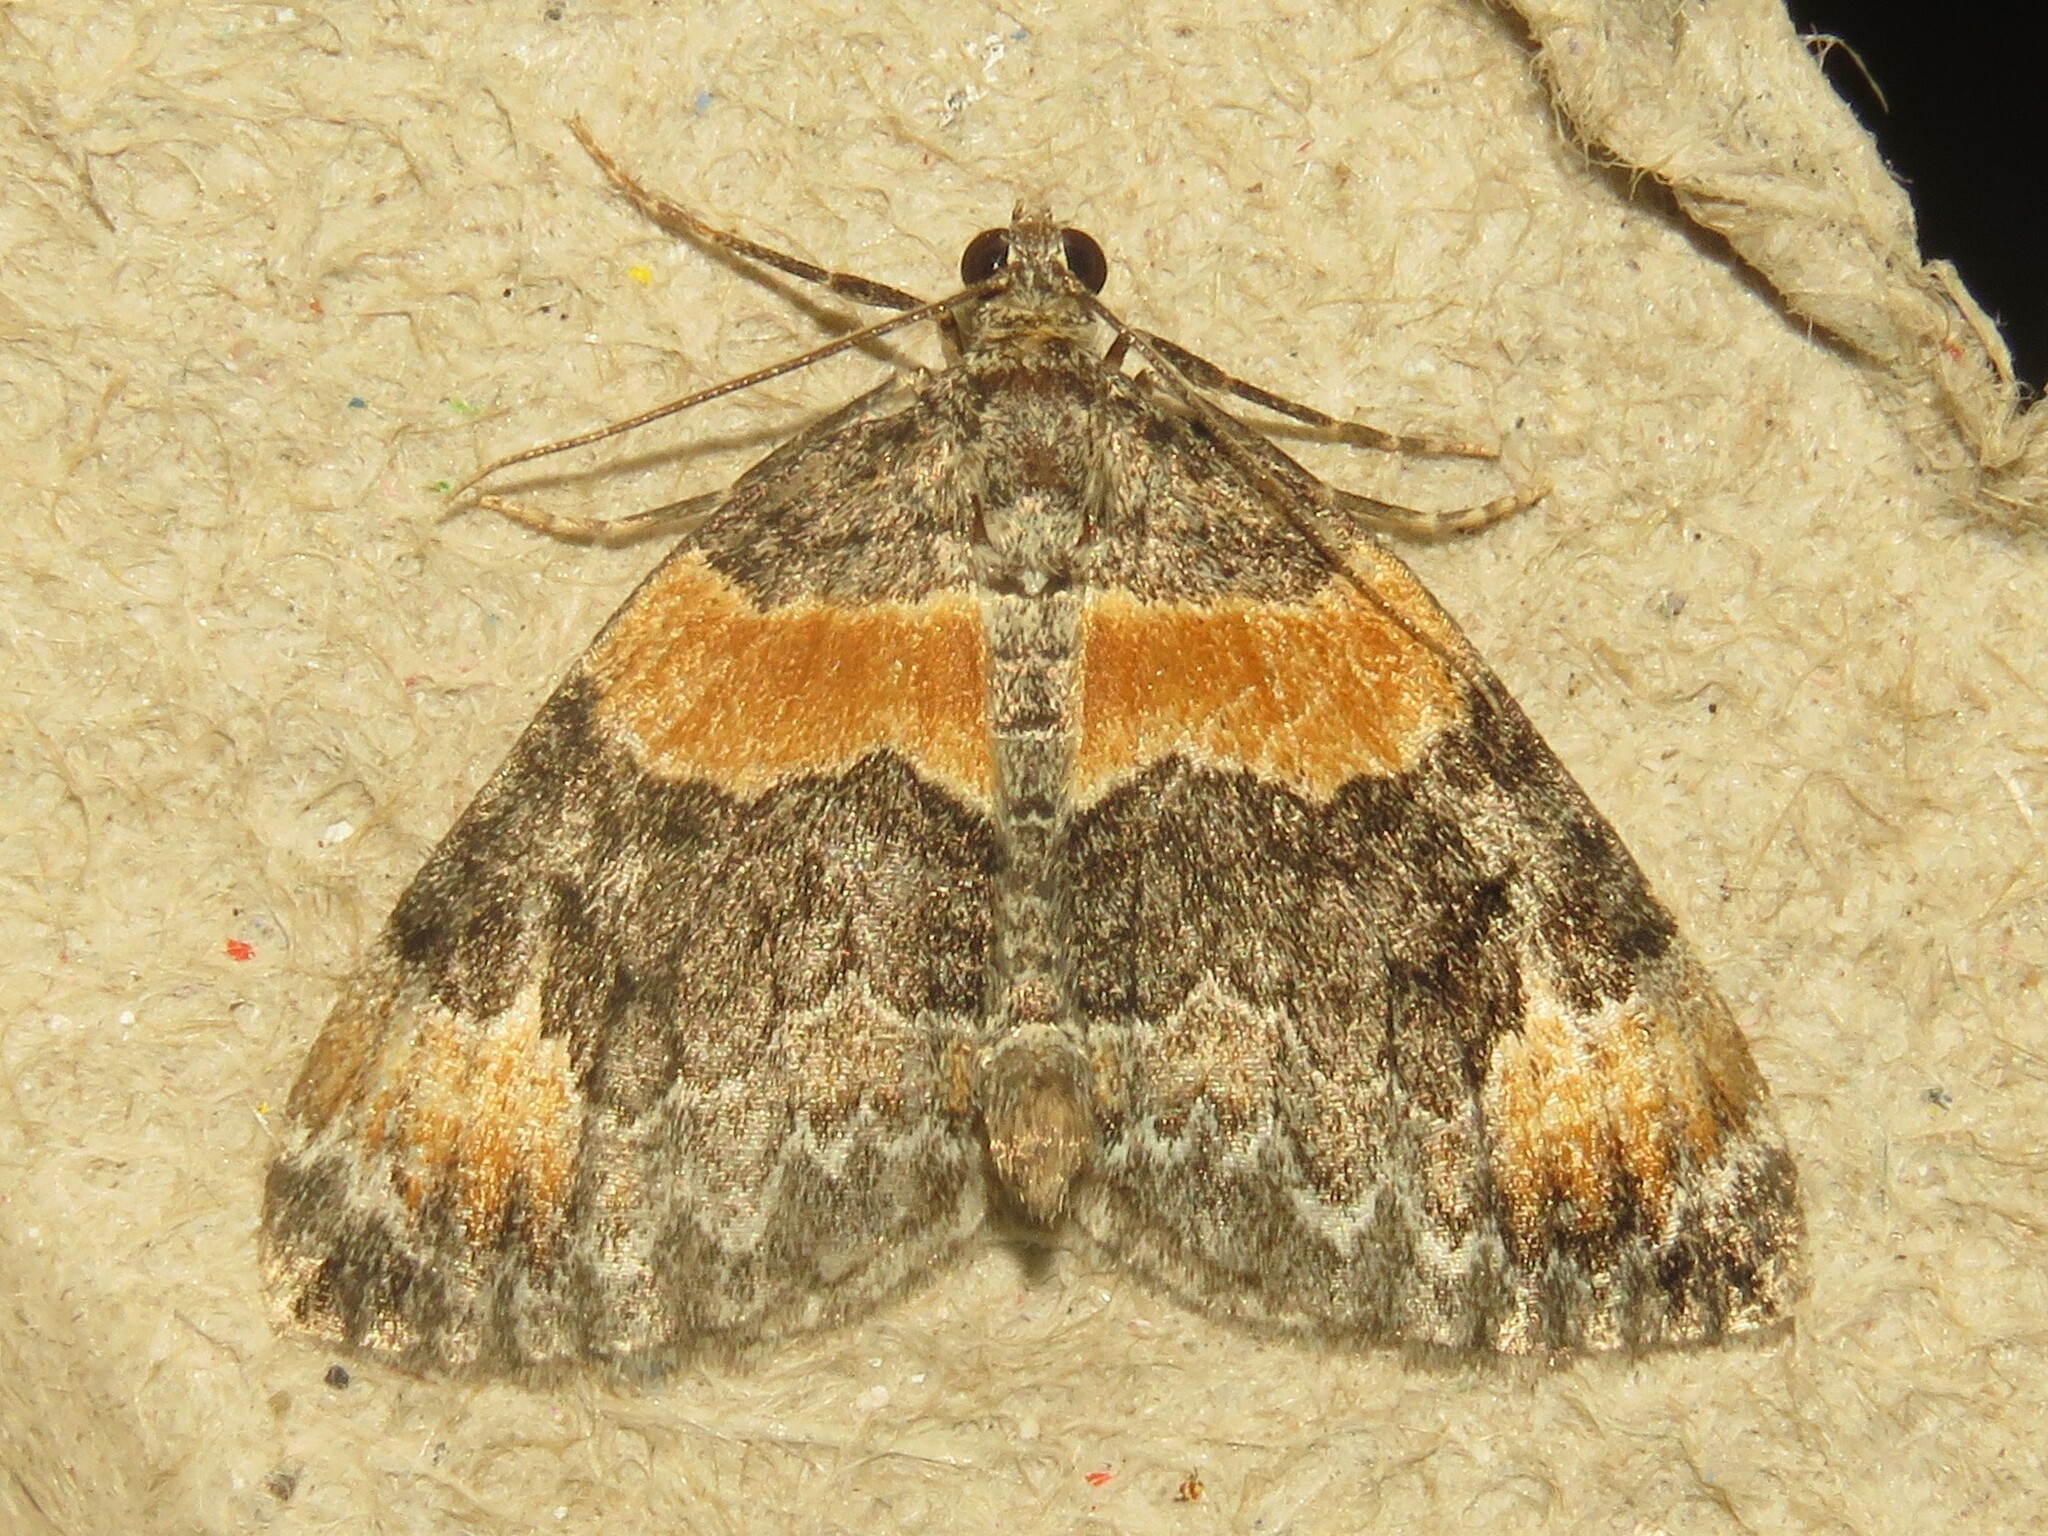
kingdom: Animalia
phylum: Arthropoda
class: Insecta
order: Lepidoptera
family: Geometridae
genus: Dysstroma
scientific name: Dysstroma hersiliata
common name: Orange-barred carpet
